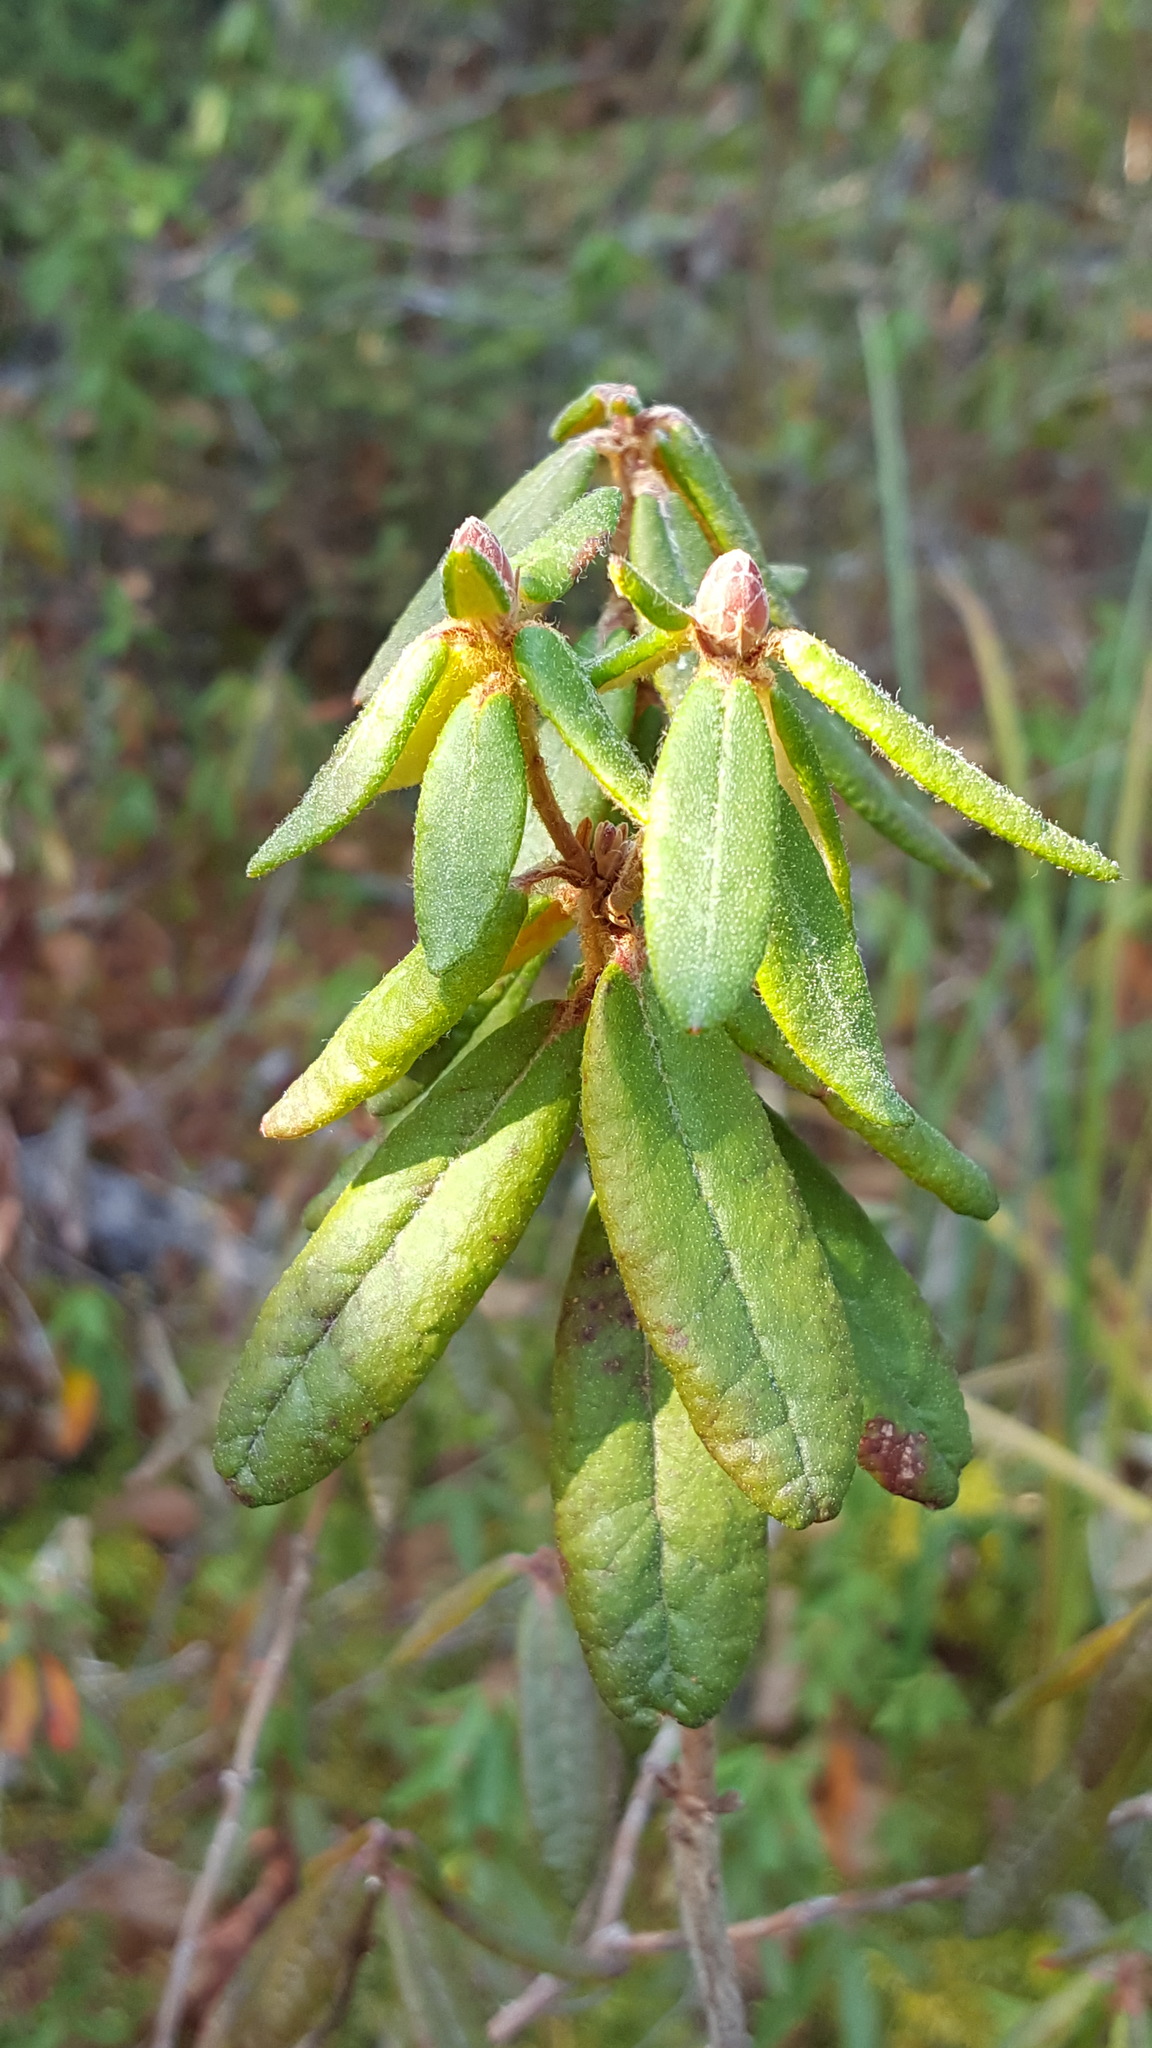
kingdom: Plantae
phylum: Tracheophyta
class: Magnoliopsida
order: Ericales
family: Ericaceae
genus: Rhododendron
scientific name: Rhododendron groenlandicum
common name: Bog labrador tea
